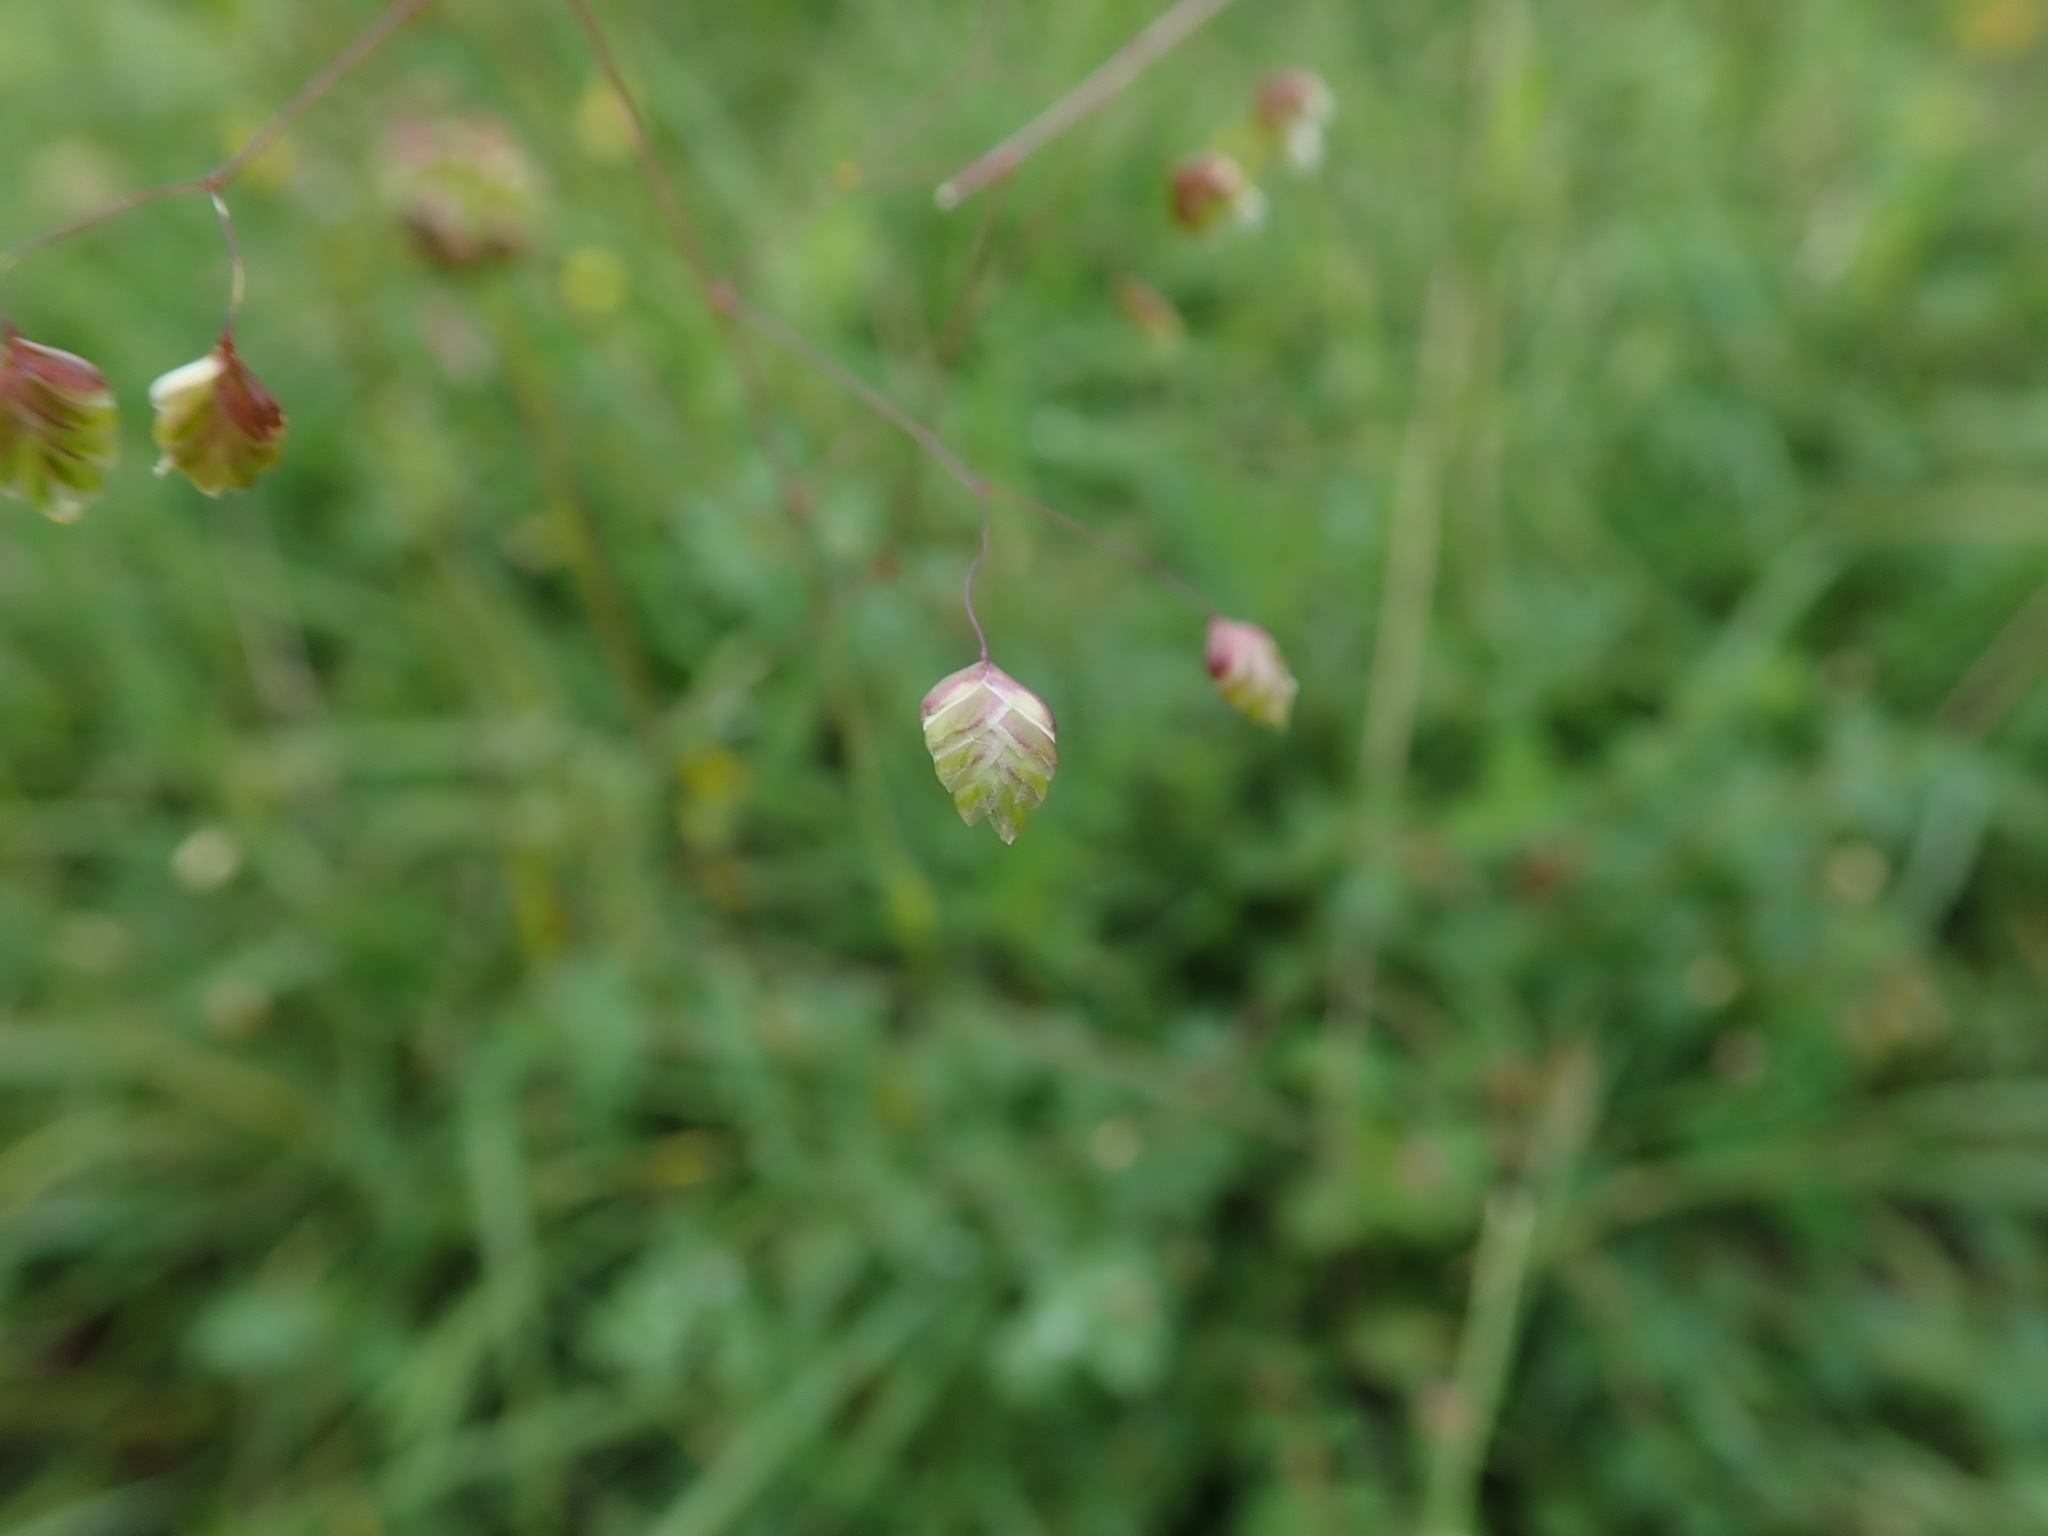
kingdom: Plantae
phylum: Tracheophyta
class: Liliopsida
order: Poales
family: Poaceae
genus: Briza
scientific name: Briza media
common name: Quaking grass
